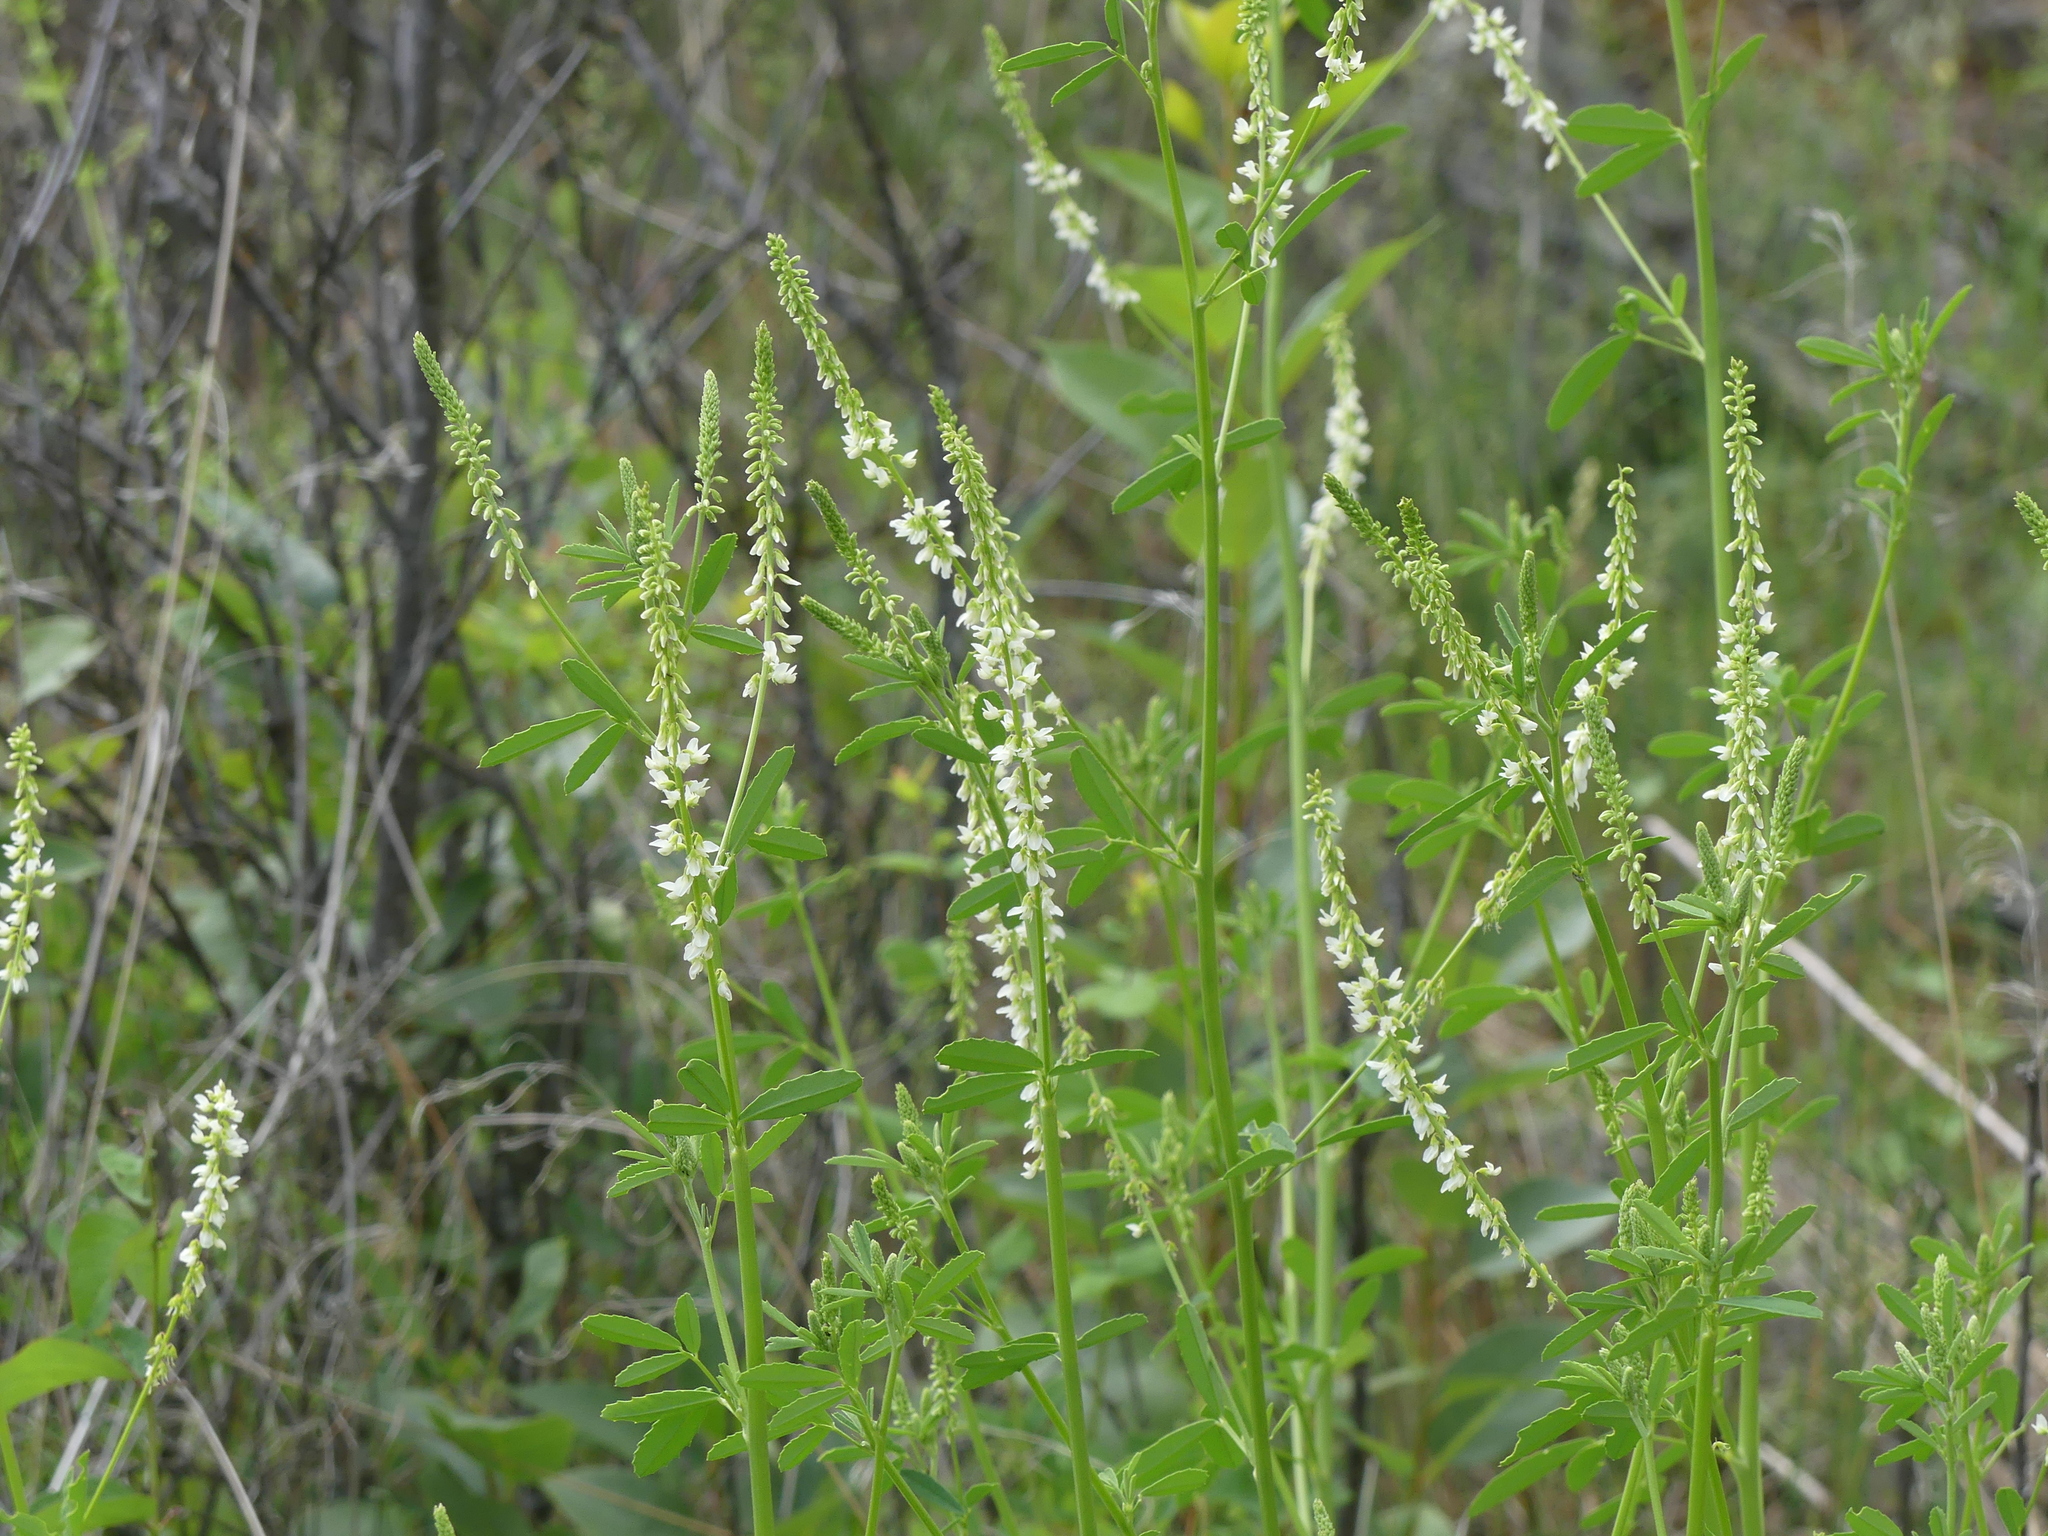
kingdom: Plantae
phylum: Tracheophyta
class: Magnoliopsida
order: Fabales
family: Fabaceae
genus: Melilotus
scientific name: Melilotus albus
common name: White melilot
